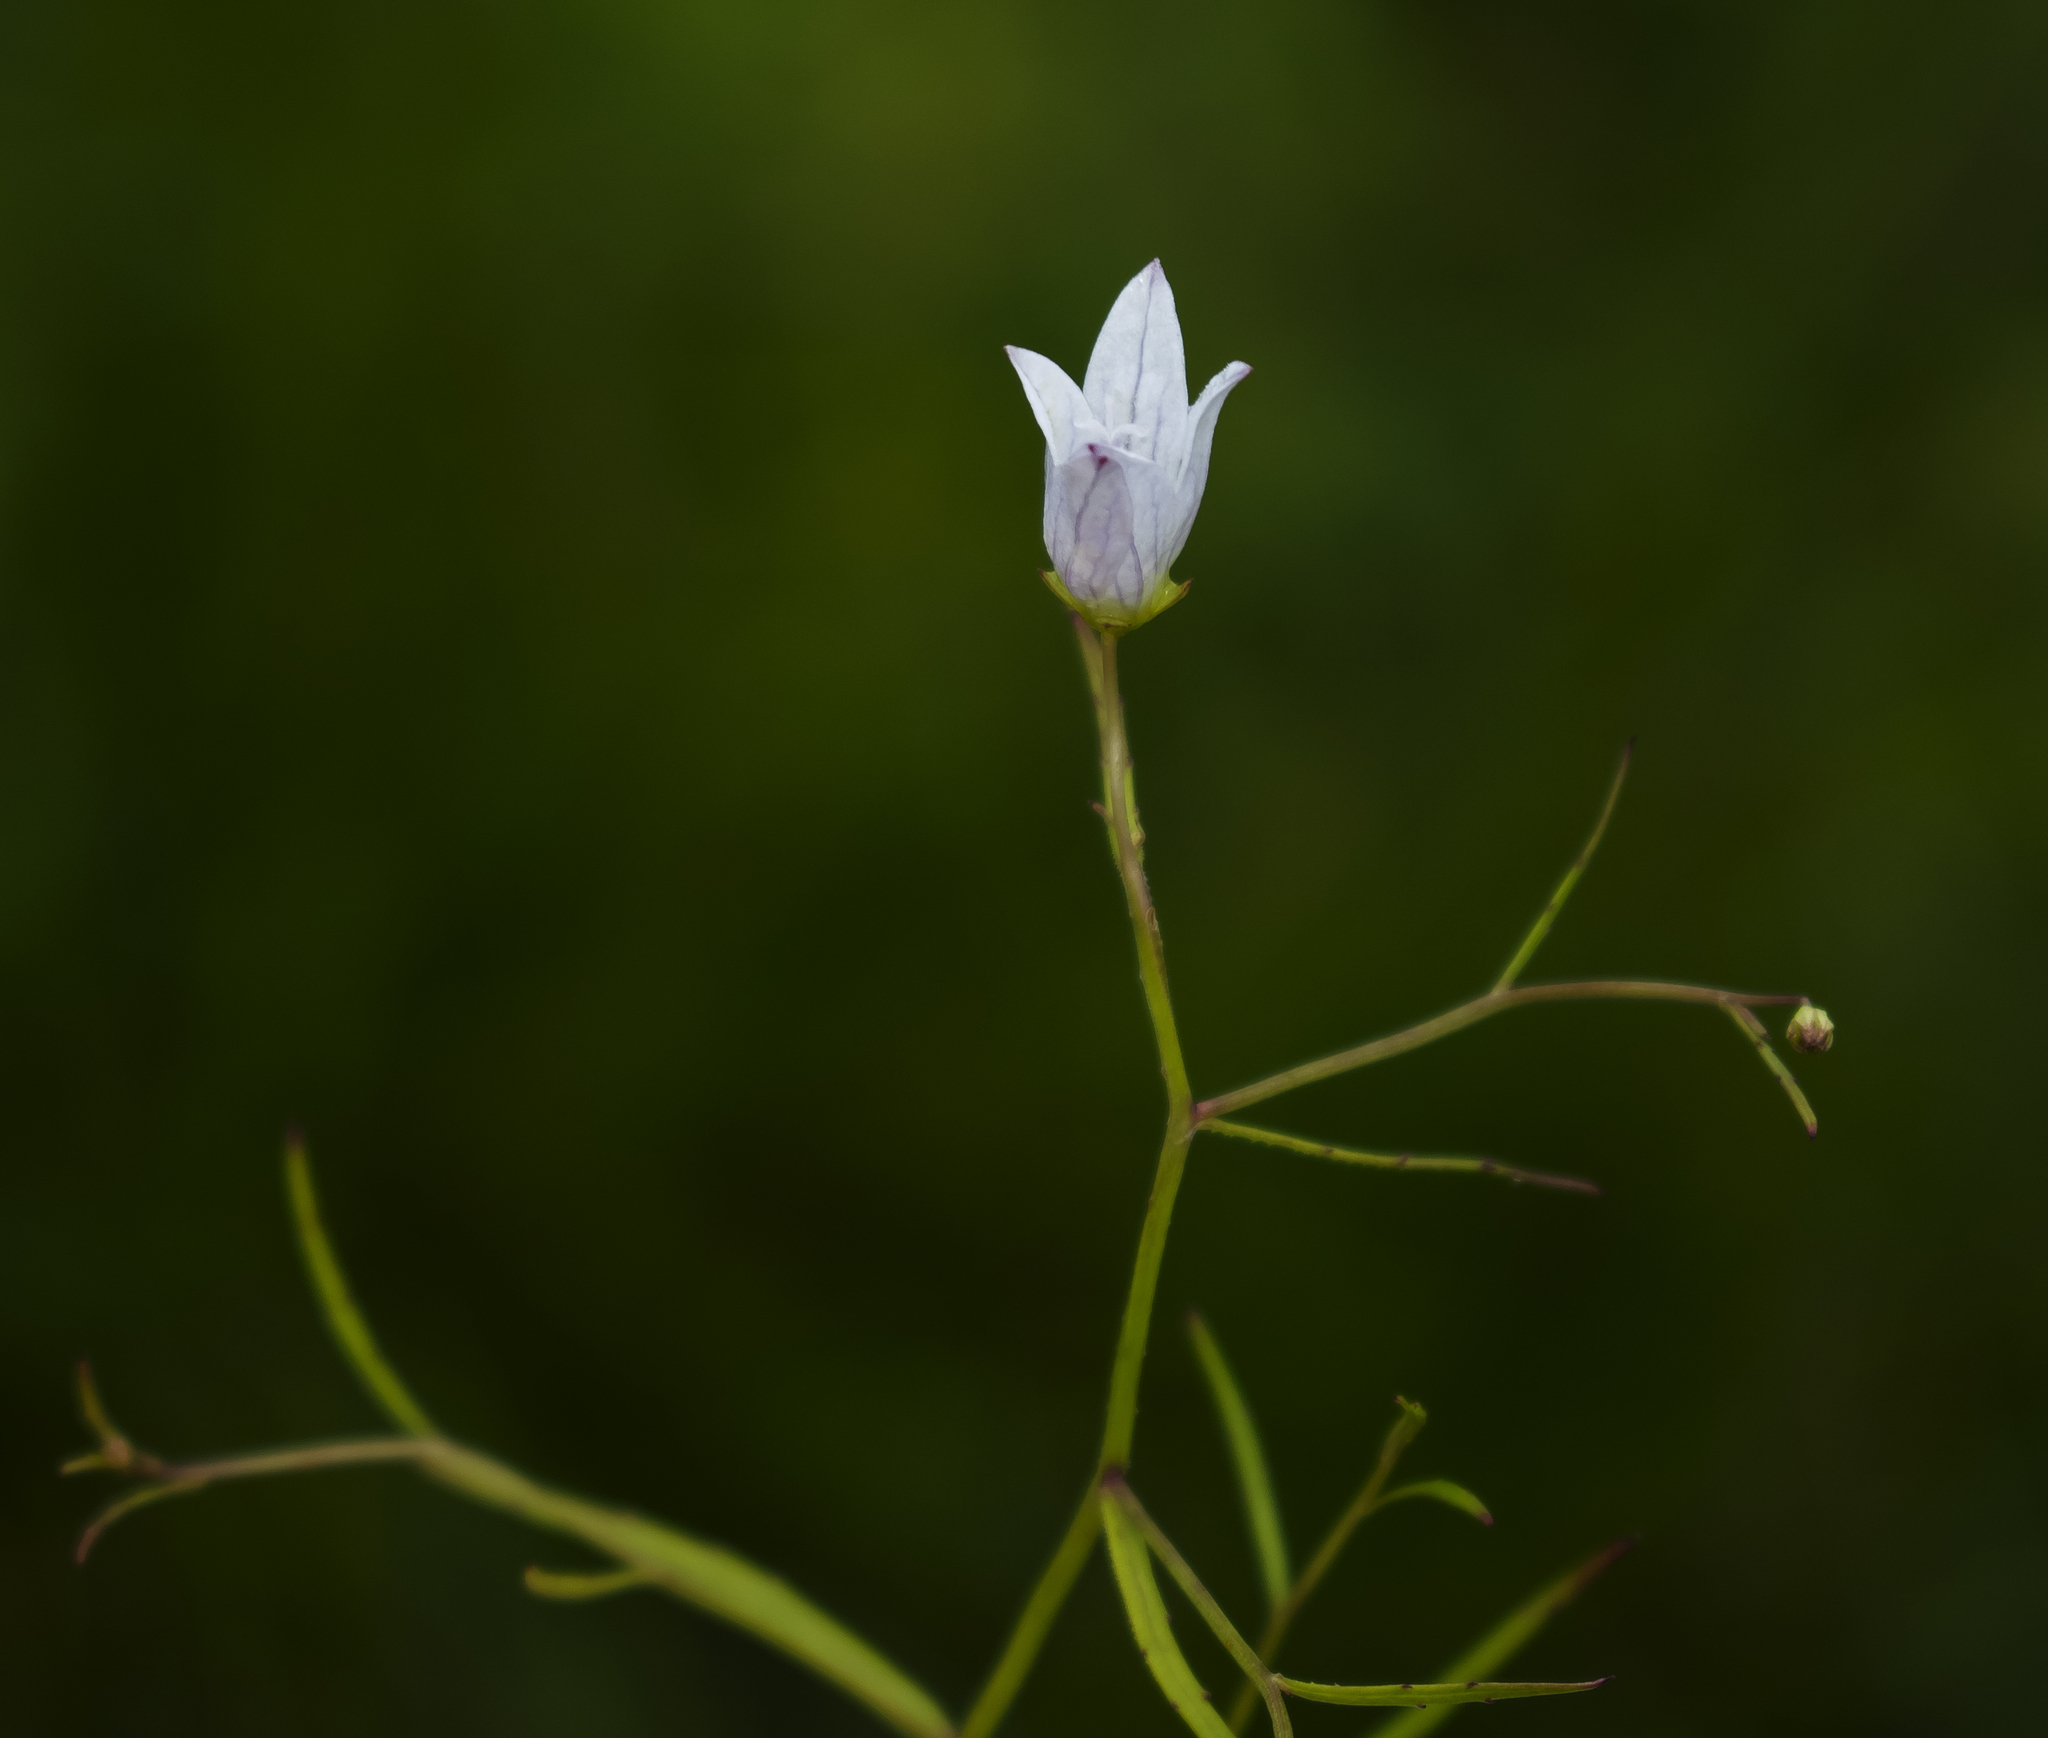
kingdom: Plantae
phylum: Tracheophyta
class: Magnoliopsida
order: Asterales
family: Campanulaceae
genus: Palustricodon
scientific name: Palustricodon aparinoides
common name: Bedstraw bellflower
